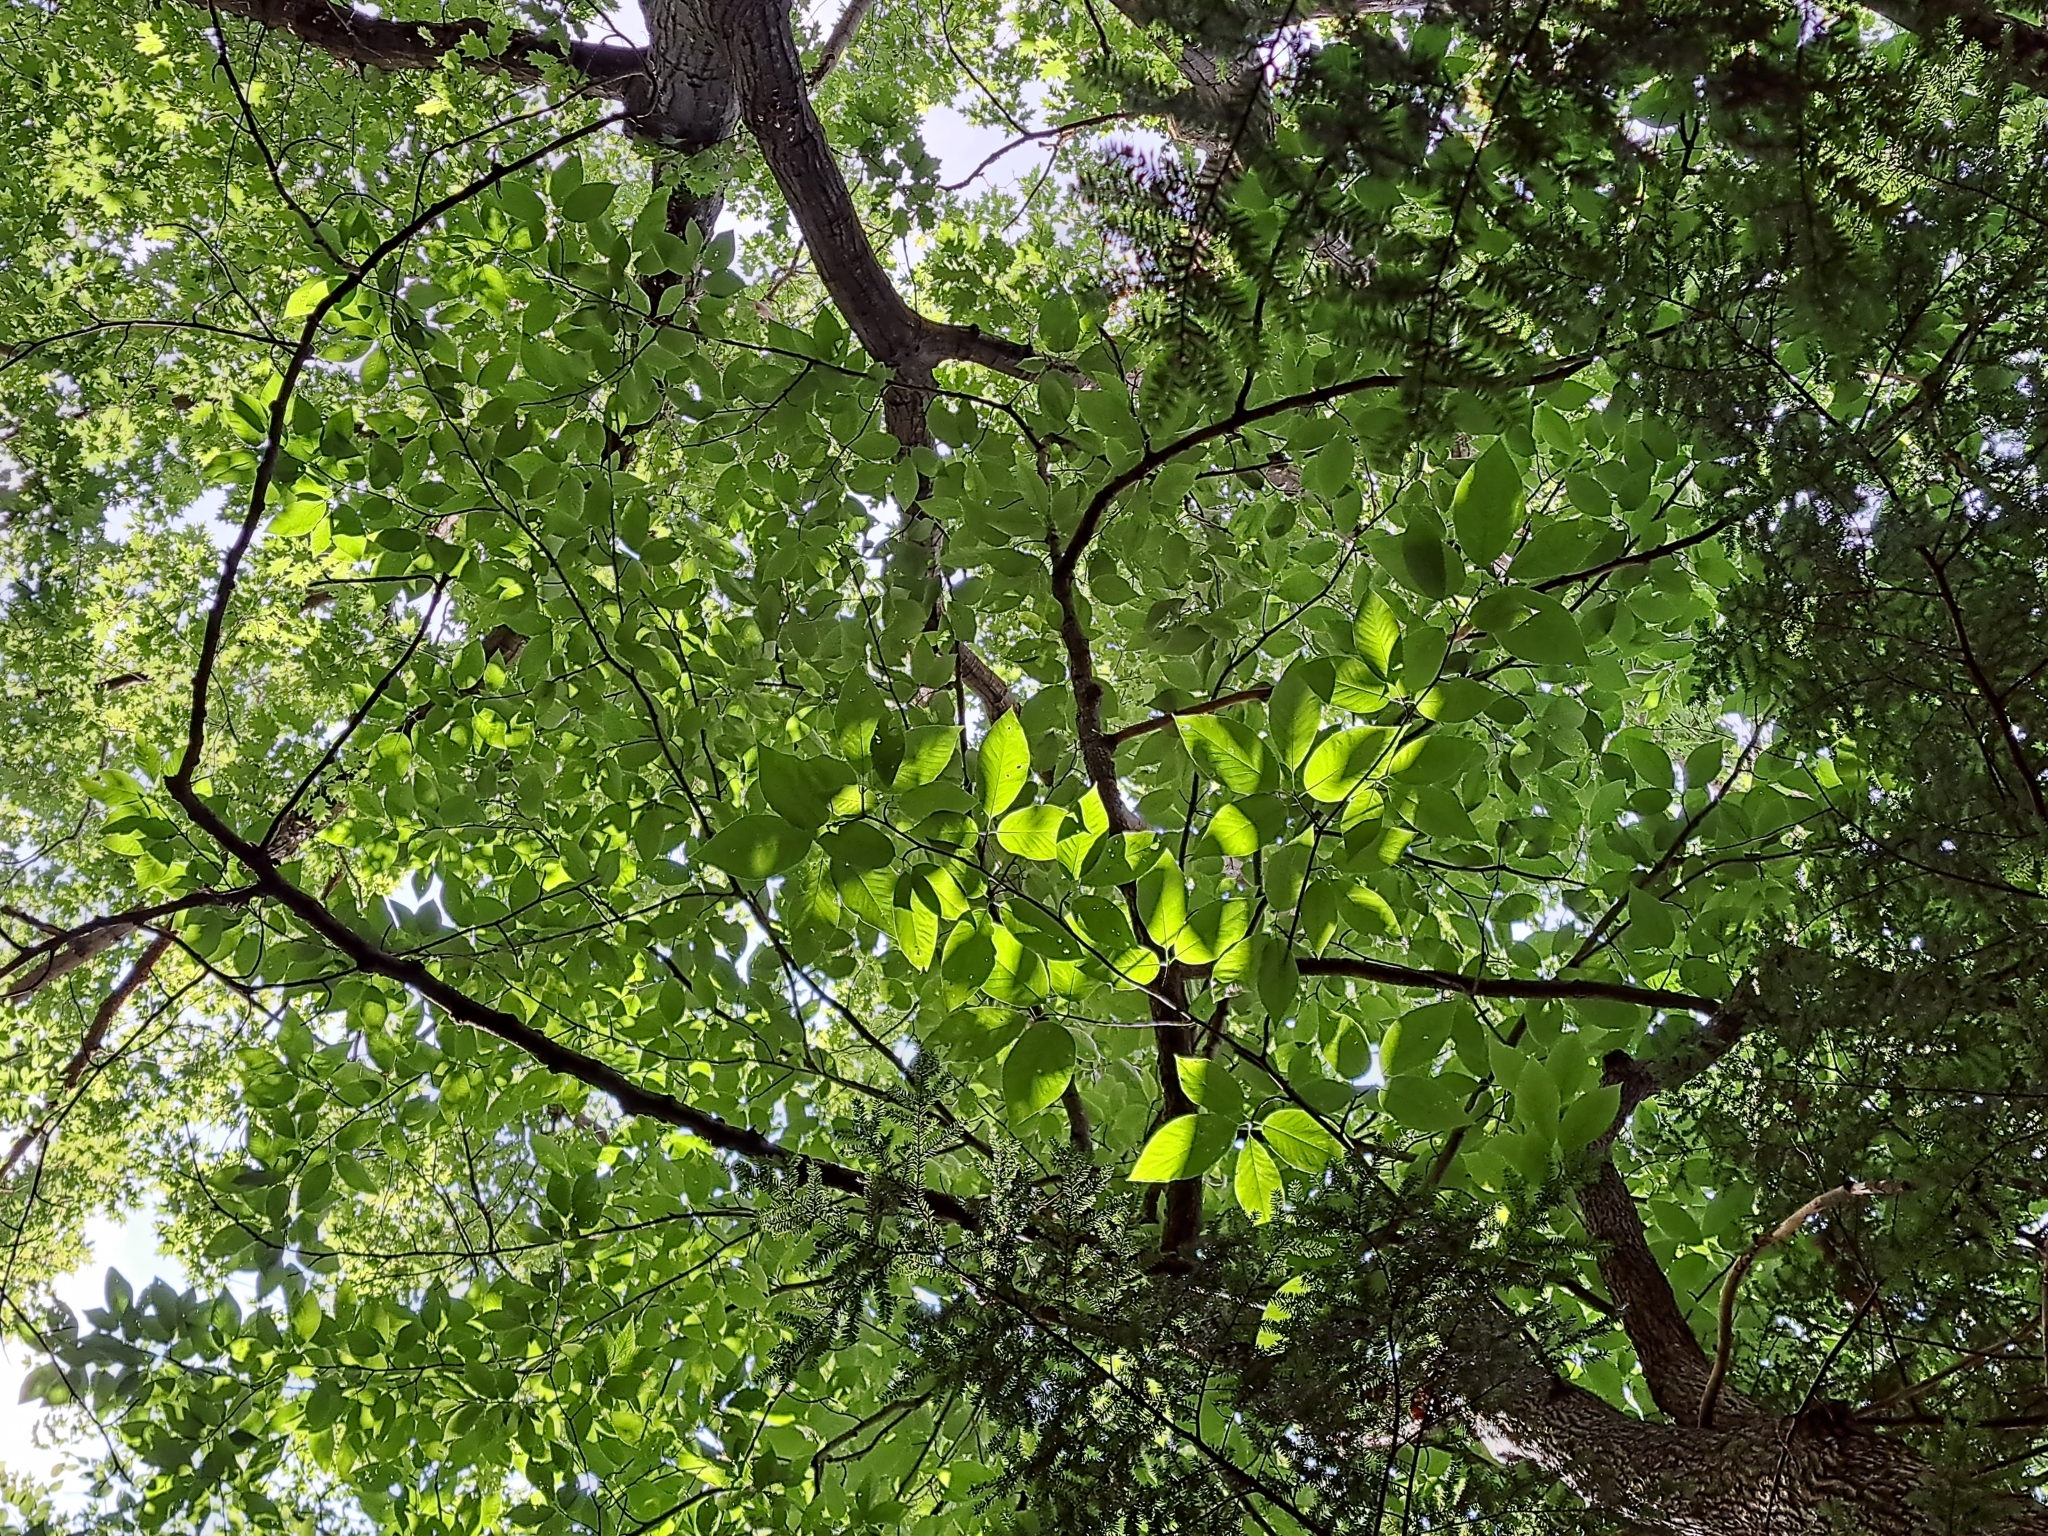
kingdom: Plantae
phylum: Tracheophyta
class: Magnoliopsida
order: Magnoliales
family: Magnoliaceae
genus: Magnolia
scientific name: Magnolia acuminata
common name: Cucumber magnolia
